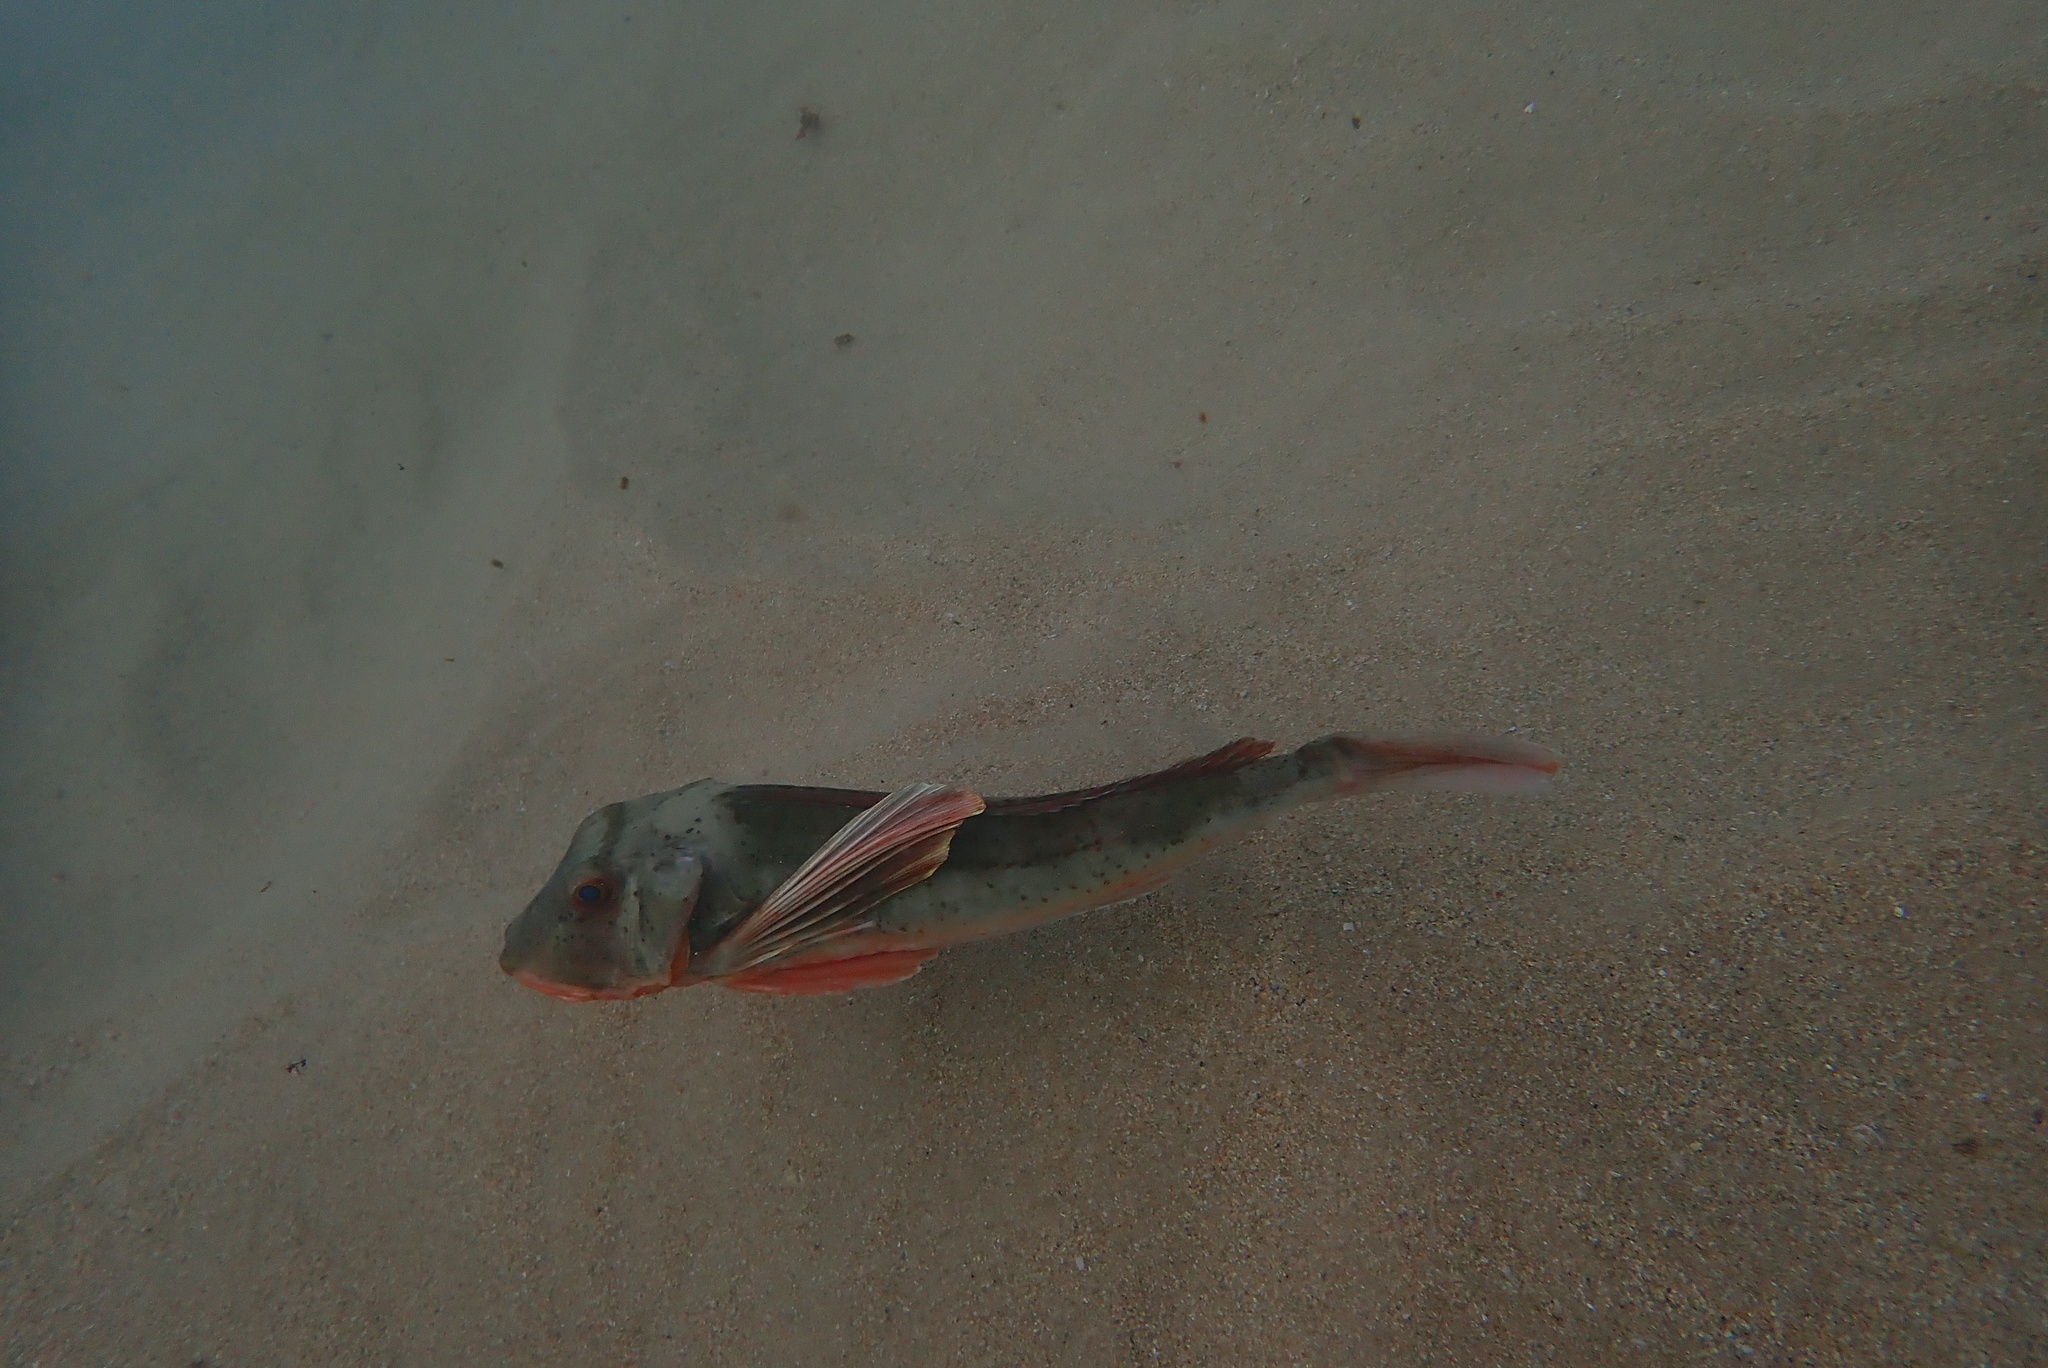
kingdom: Animalia
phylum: Chordata
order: Scorpaeniformes
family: Triglidae
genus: Chelidonichthys
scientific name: Chelidonichthys lucerna
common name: Tub gurnard
